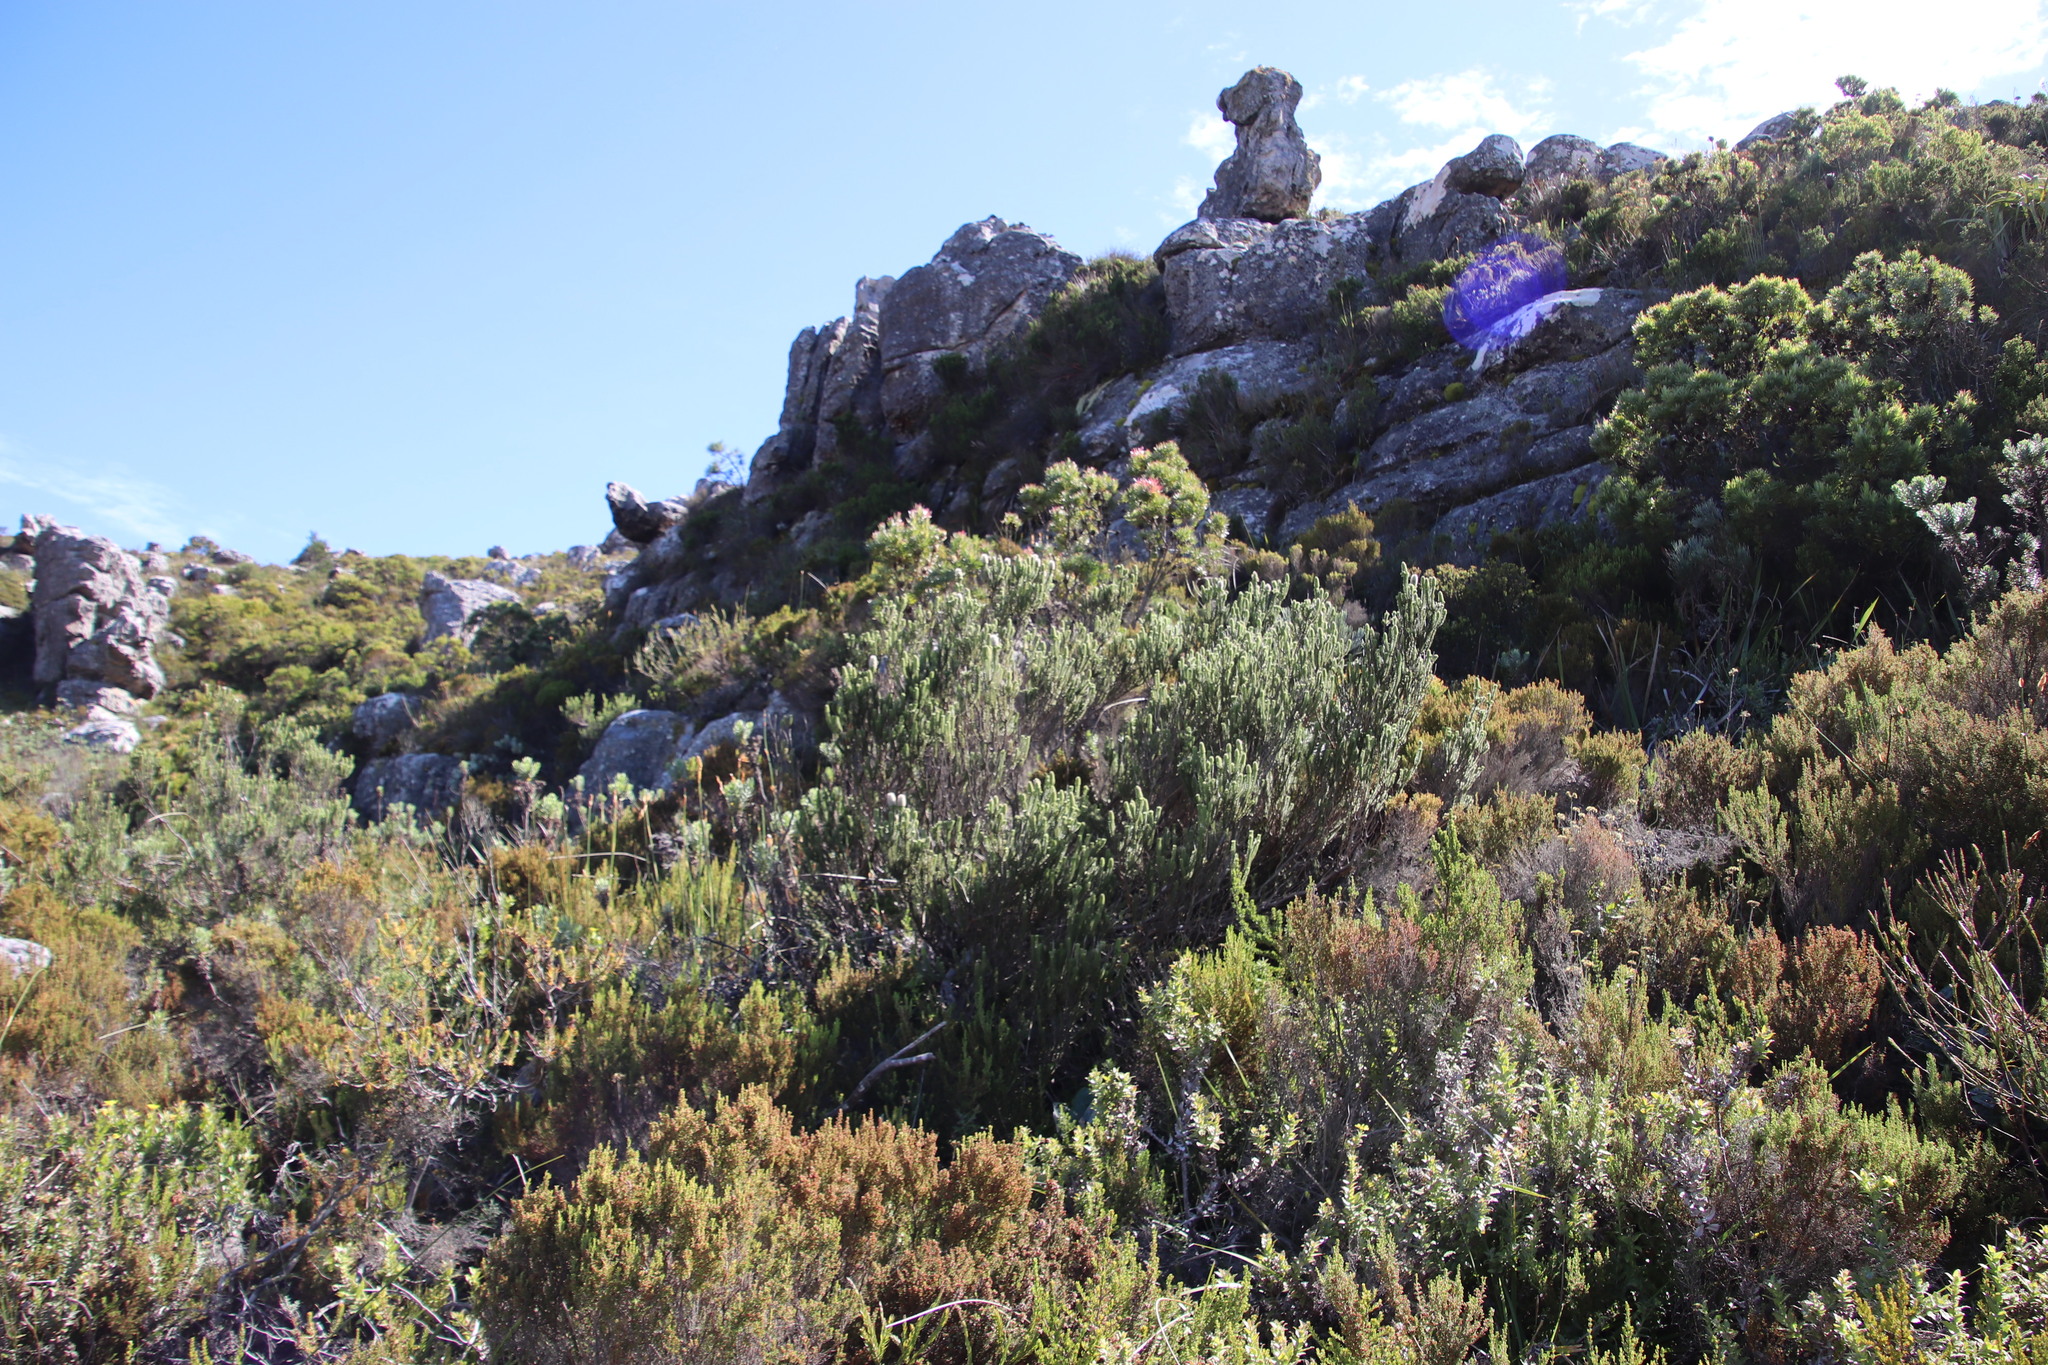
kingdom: Plantae
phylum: Tracheophyta
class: Magnoliopsida
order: Lamiales
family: Stilbaceae
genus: Stilbe
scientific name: Stilbe vestita
